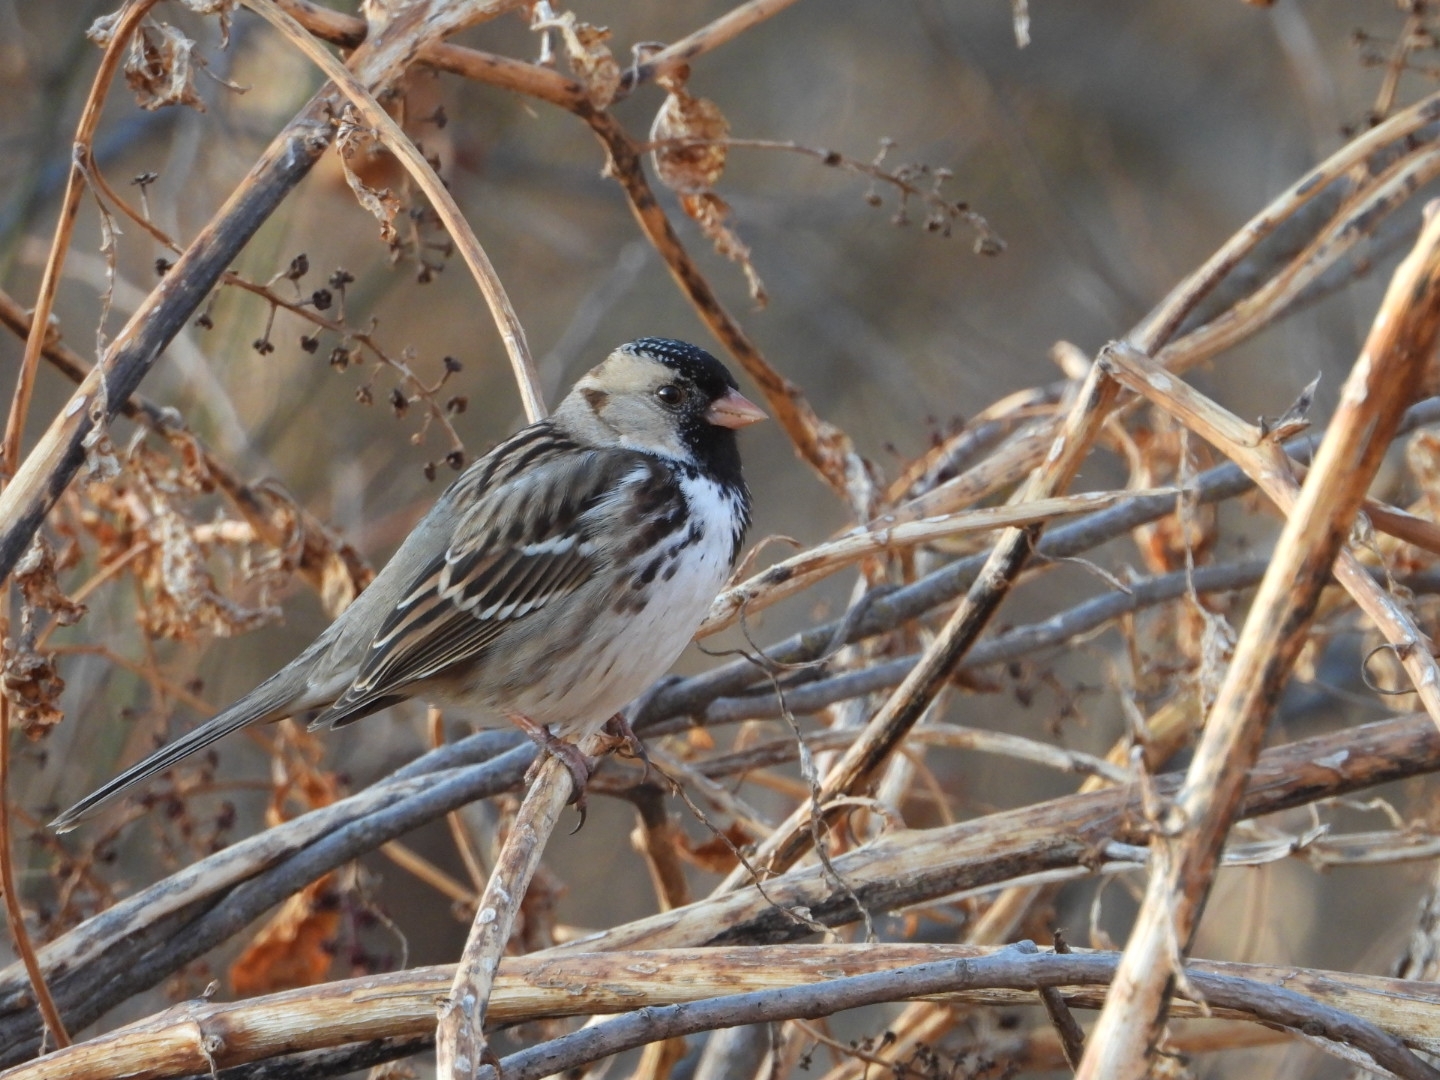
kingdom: Animalia
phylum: Chordata
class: Aves
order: Passeriformes
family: Passerellidae
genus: Zonotrichia
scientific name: Zonotrichia querula
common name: Harris's sparrow
